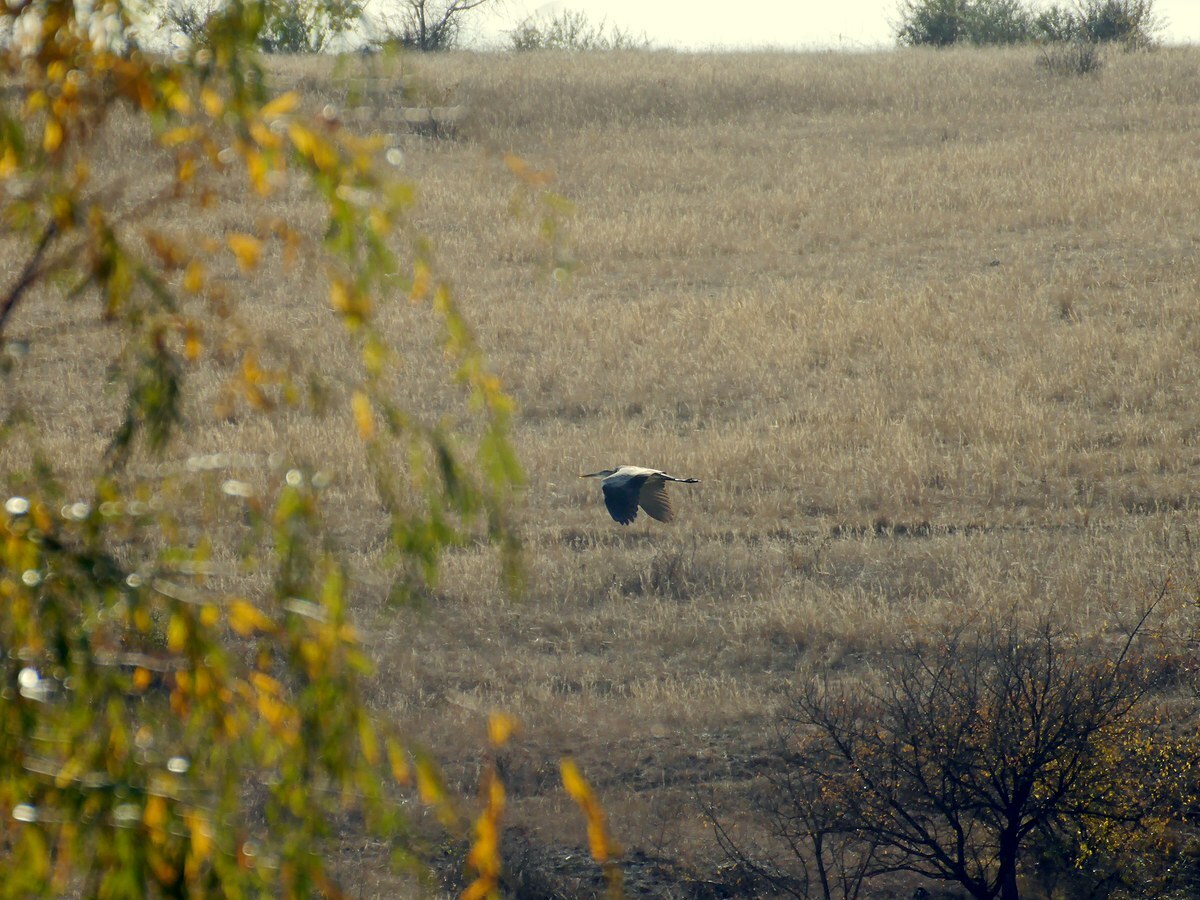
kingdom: Animalia
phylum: Chordata
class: Aves
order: Pelecaniformes
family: Ardeidae
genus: Ardea
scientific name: Ardea cinerea
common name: Grey heron
